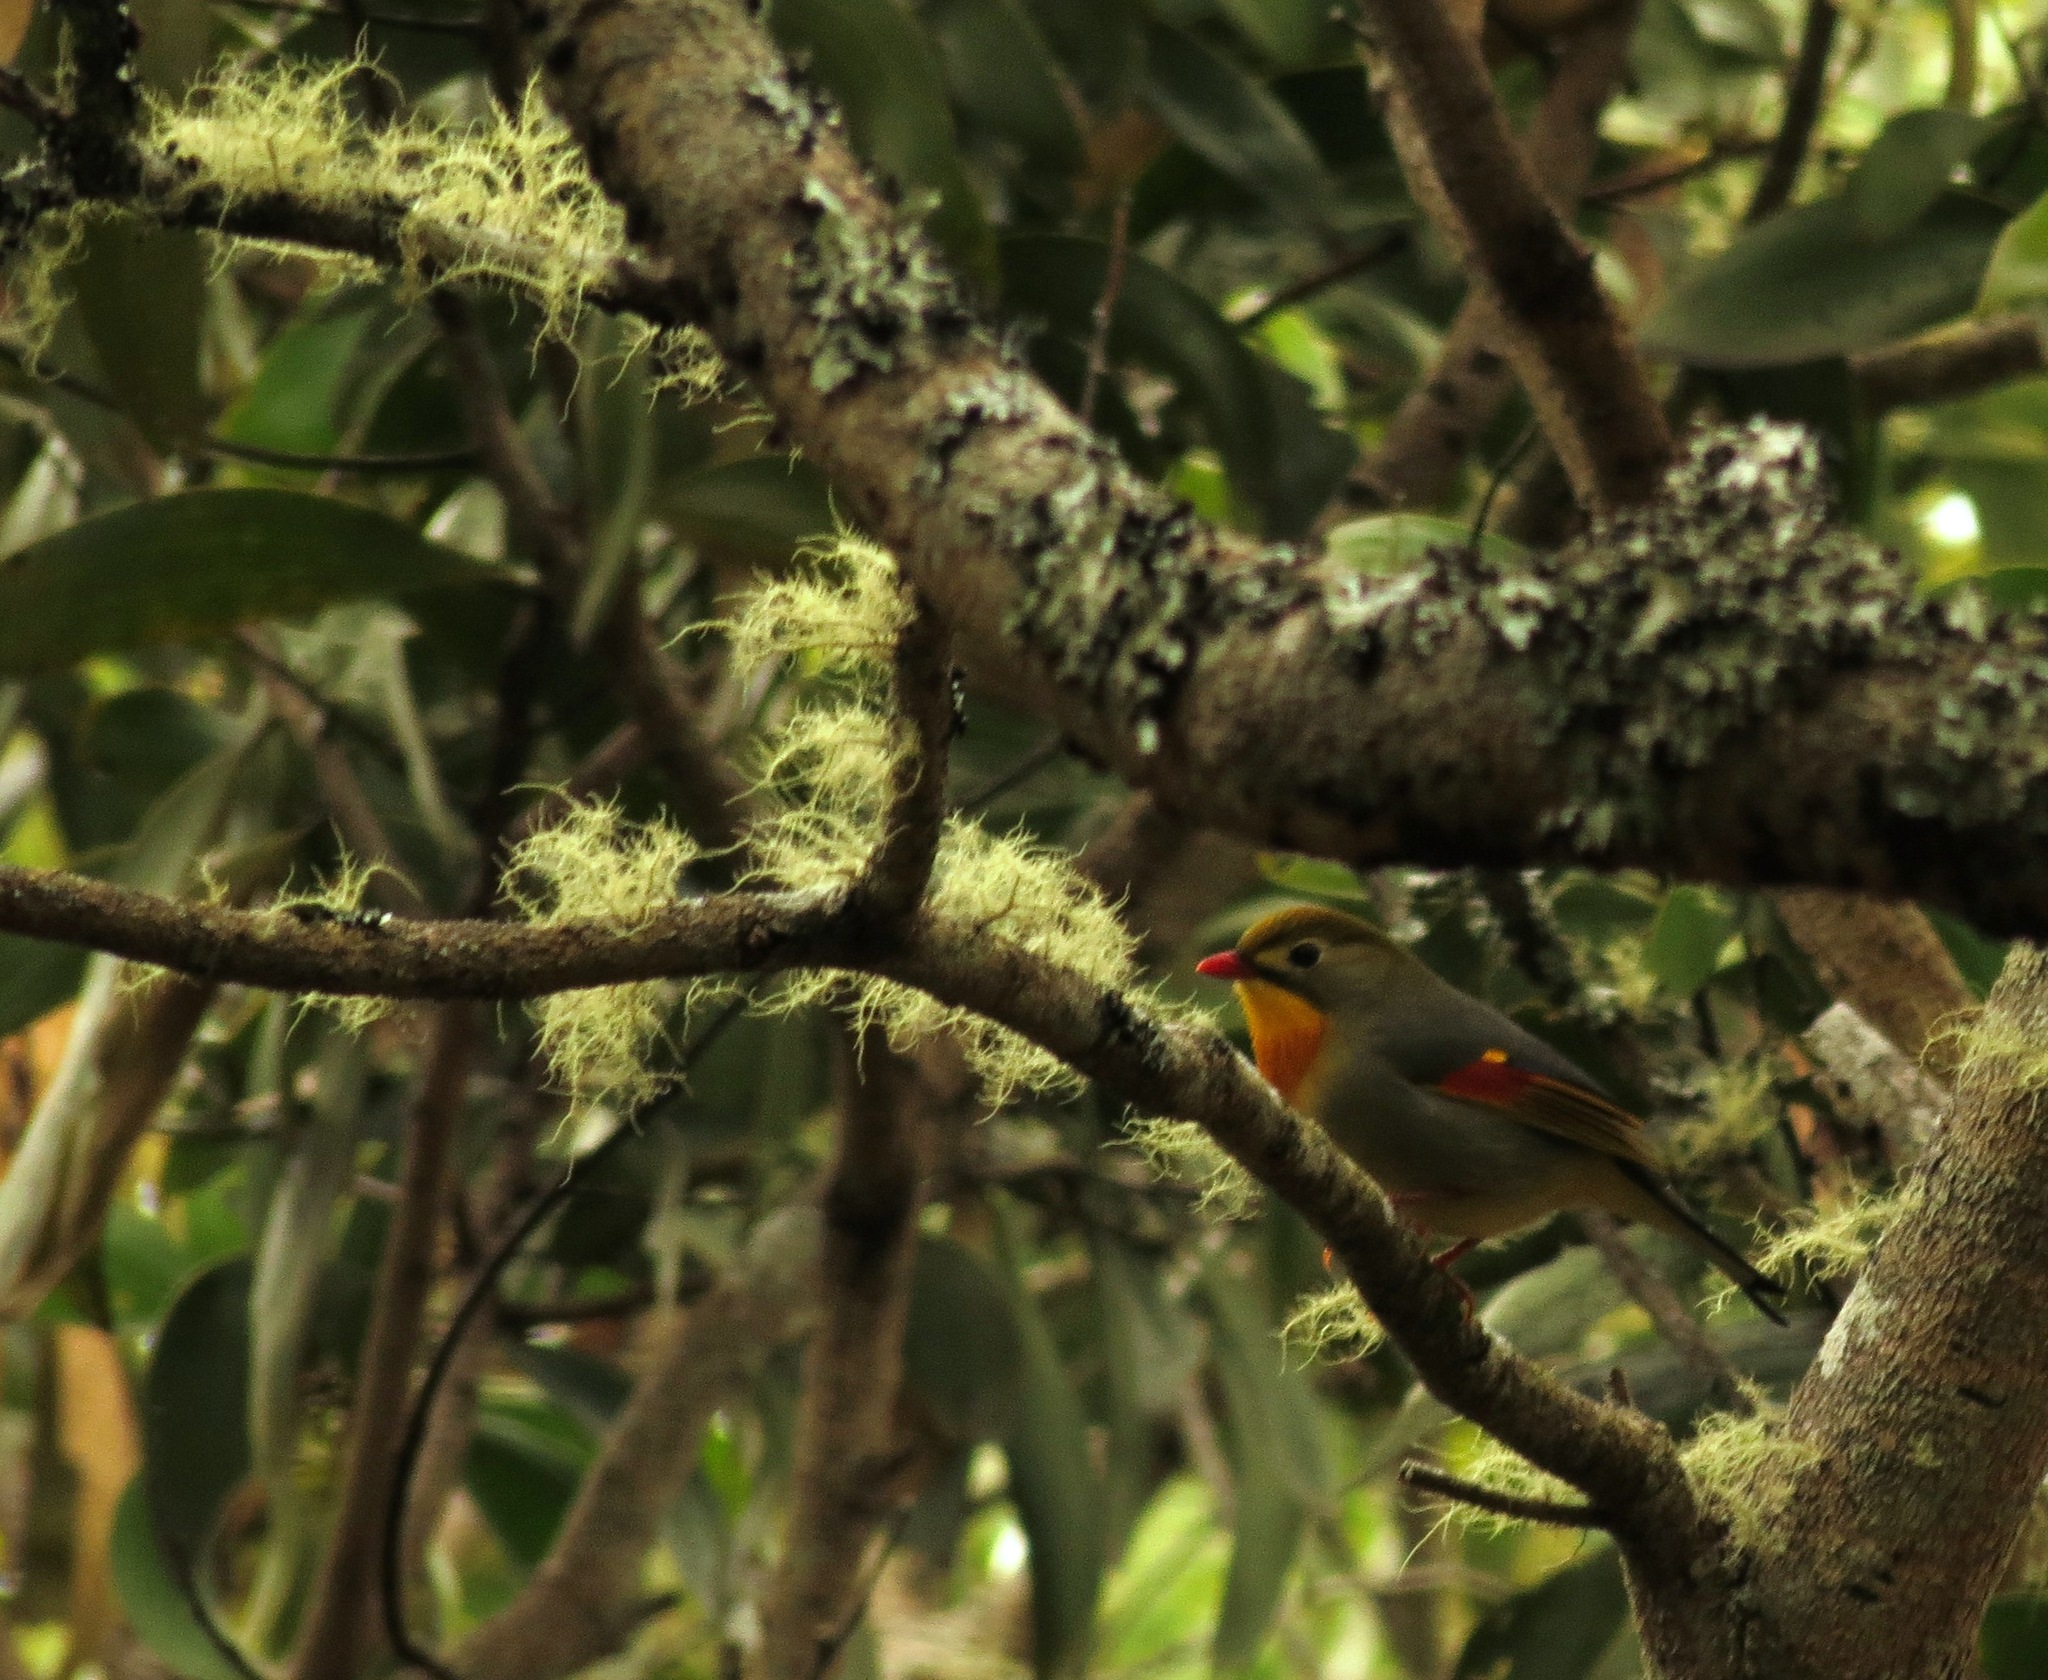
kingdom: Animalia
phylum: Chordata
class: Aves
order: Passeriformes
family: Leiothrichidae
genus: Leiothrix
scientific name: Leiothrix lutea
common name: Red-billed leiothrix
